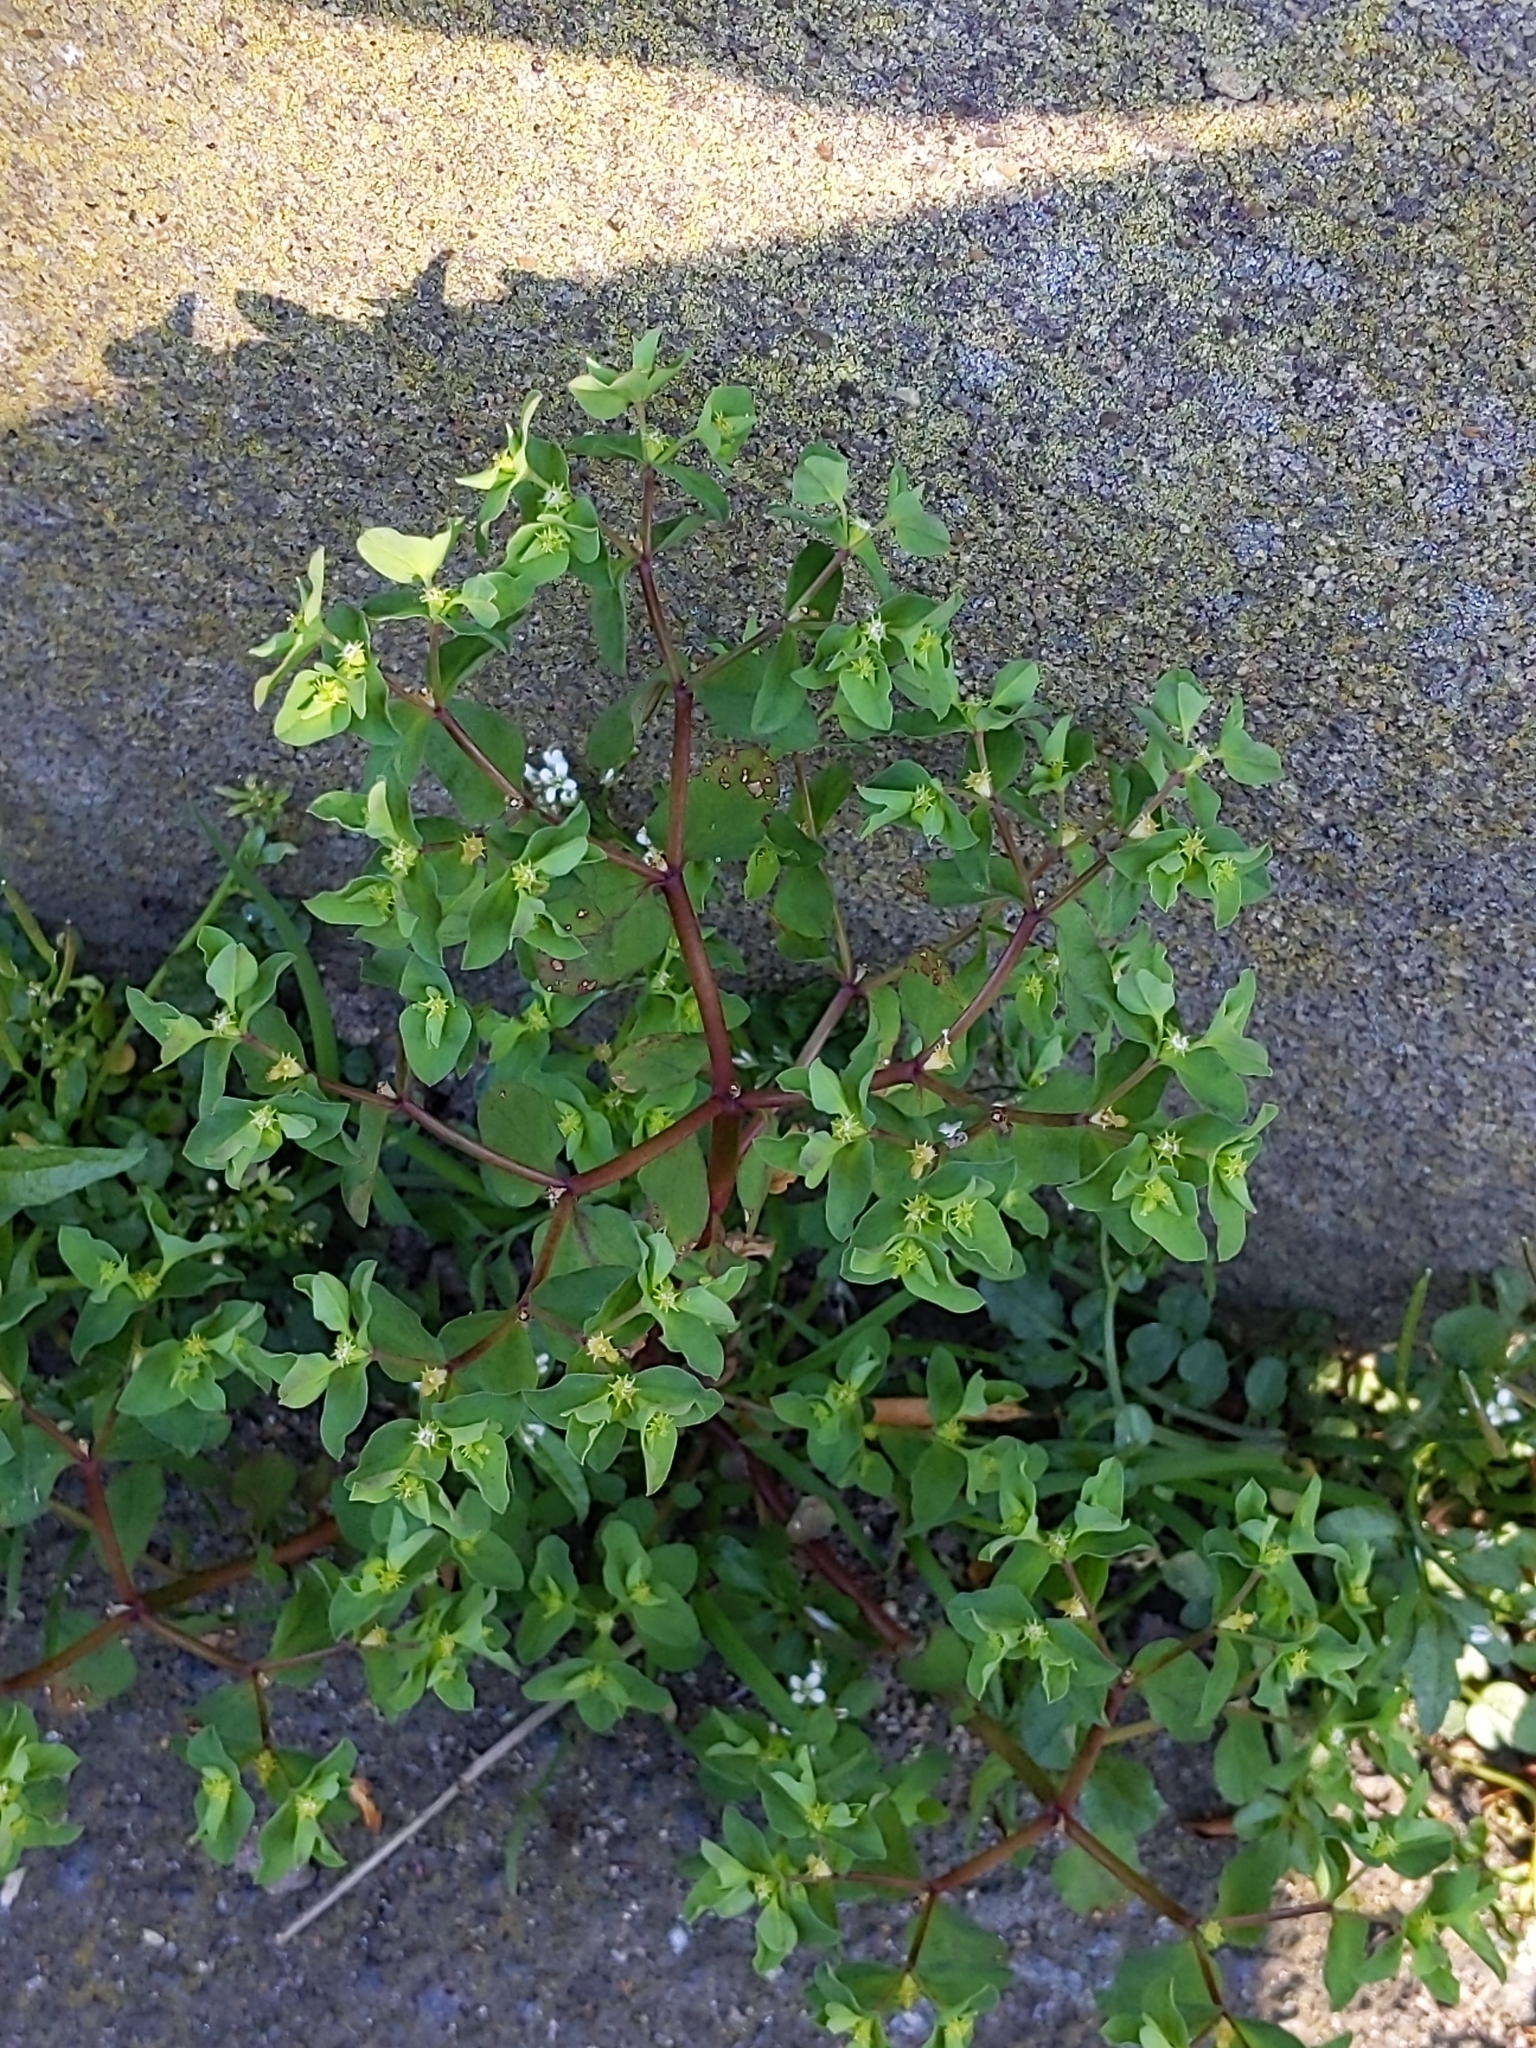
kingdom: Plantae
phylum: Tracheophyta
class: Magnoliopsida
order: Malpighiales
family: Euphorbiaceae
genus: Euphorbia
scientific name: Euphorbia peplus
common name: Petty spurge
